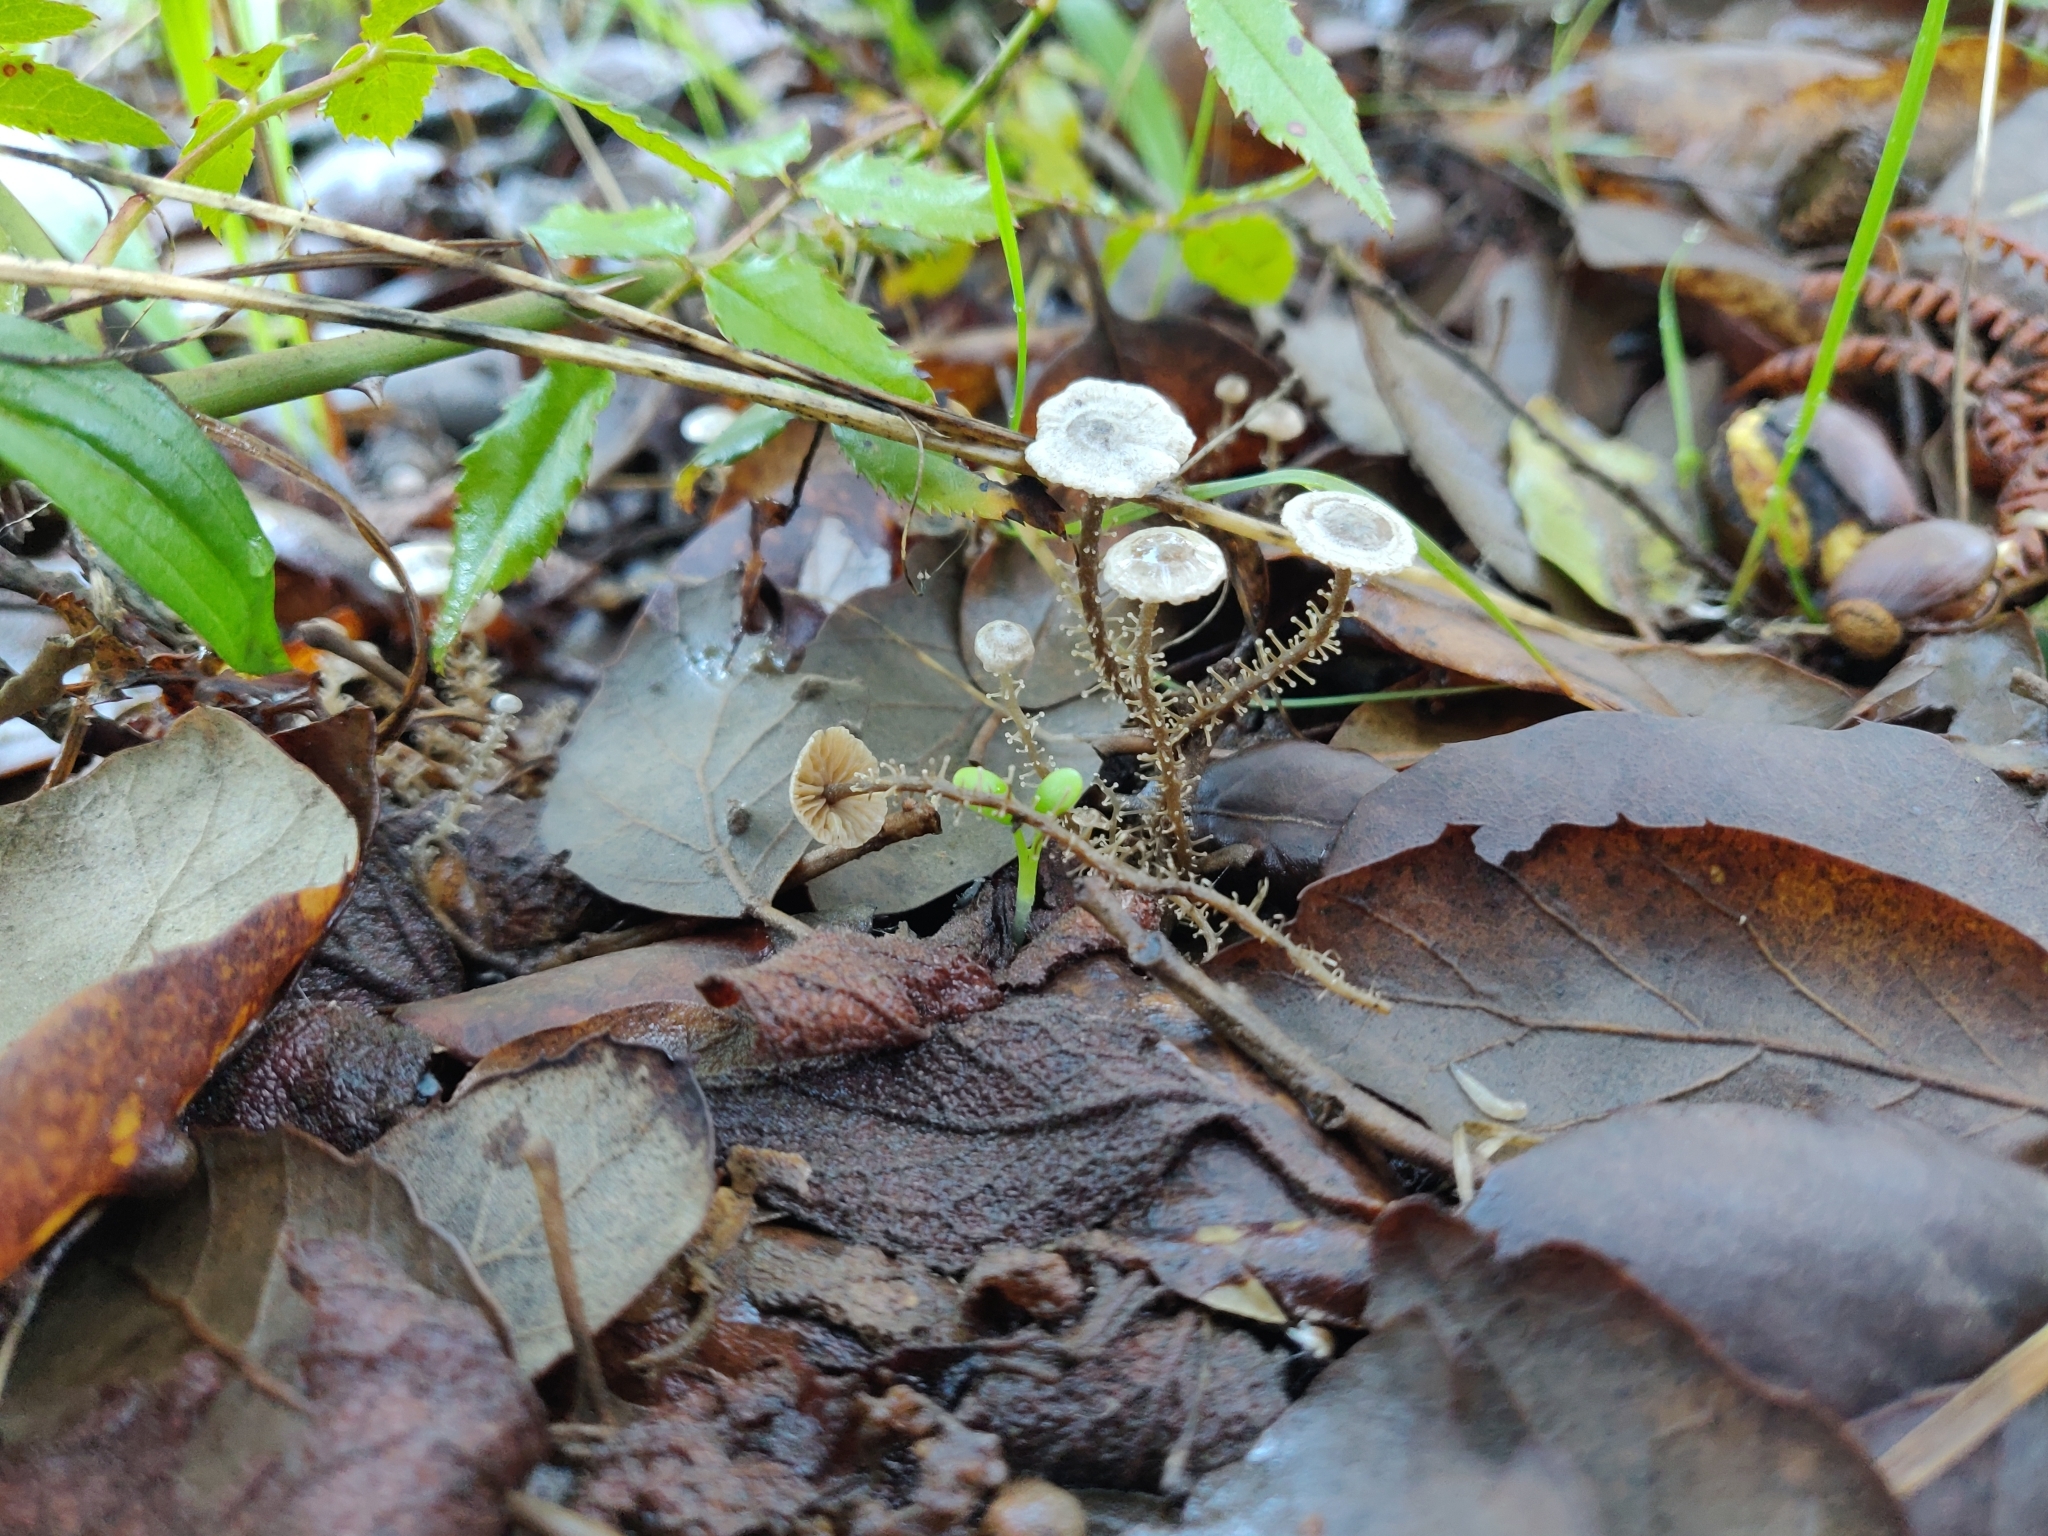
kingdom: Fungi
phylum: Basidiomycota
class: Agaricomycetes
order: Agaricales
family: Tricholomataceae
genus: Dendrocollybia
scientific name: Dendrocollybia racemosa
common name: Branched shanklet
